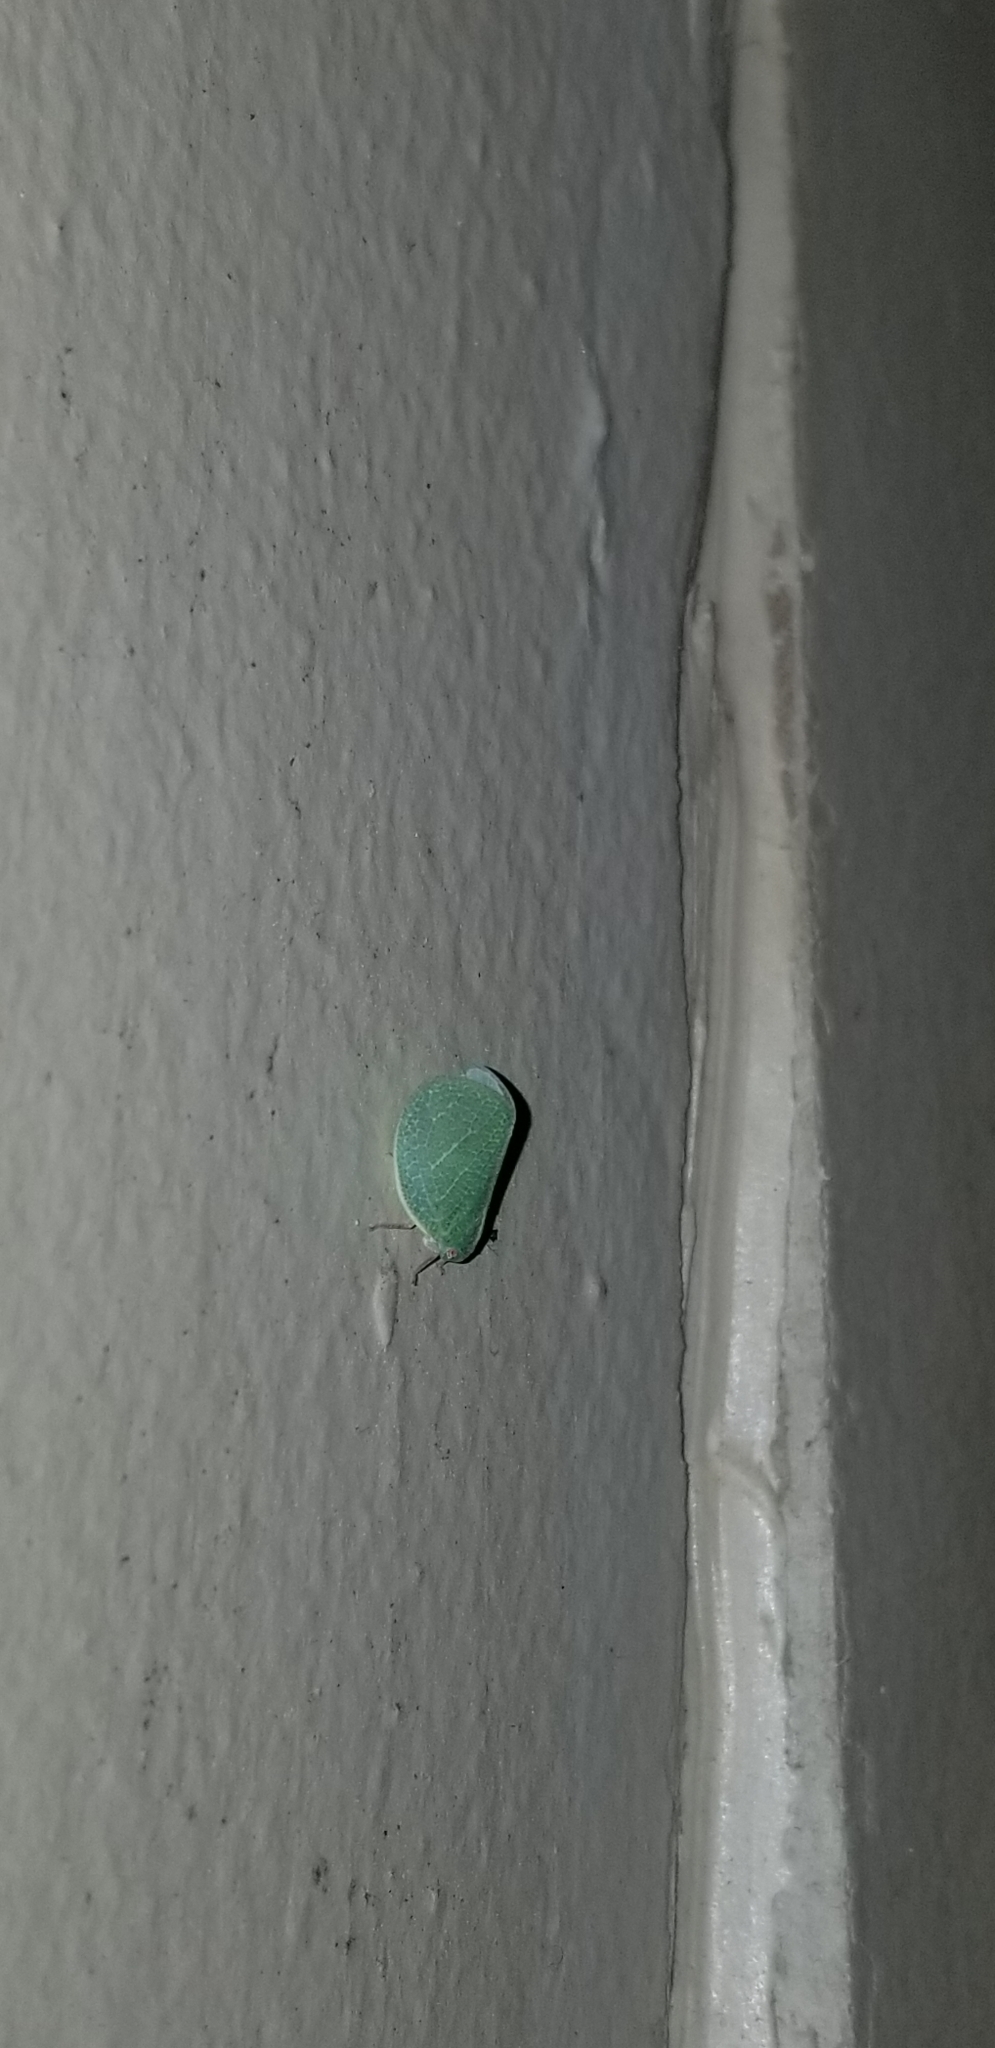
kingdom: Animalia
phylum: Arthropoda
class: Insecta
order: Hemiptera
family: Acanaloniidae
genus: Acanalonia
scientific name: Acanalonia servillei
